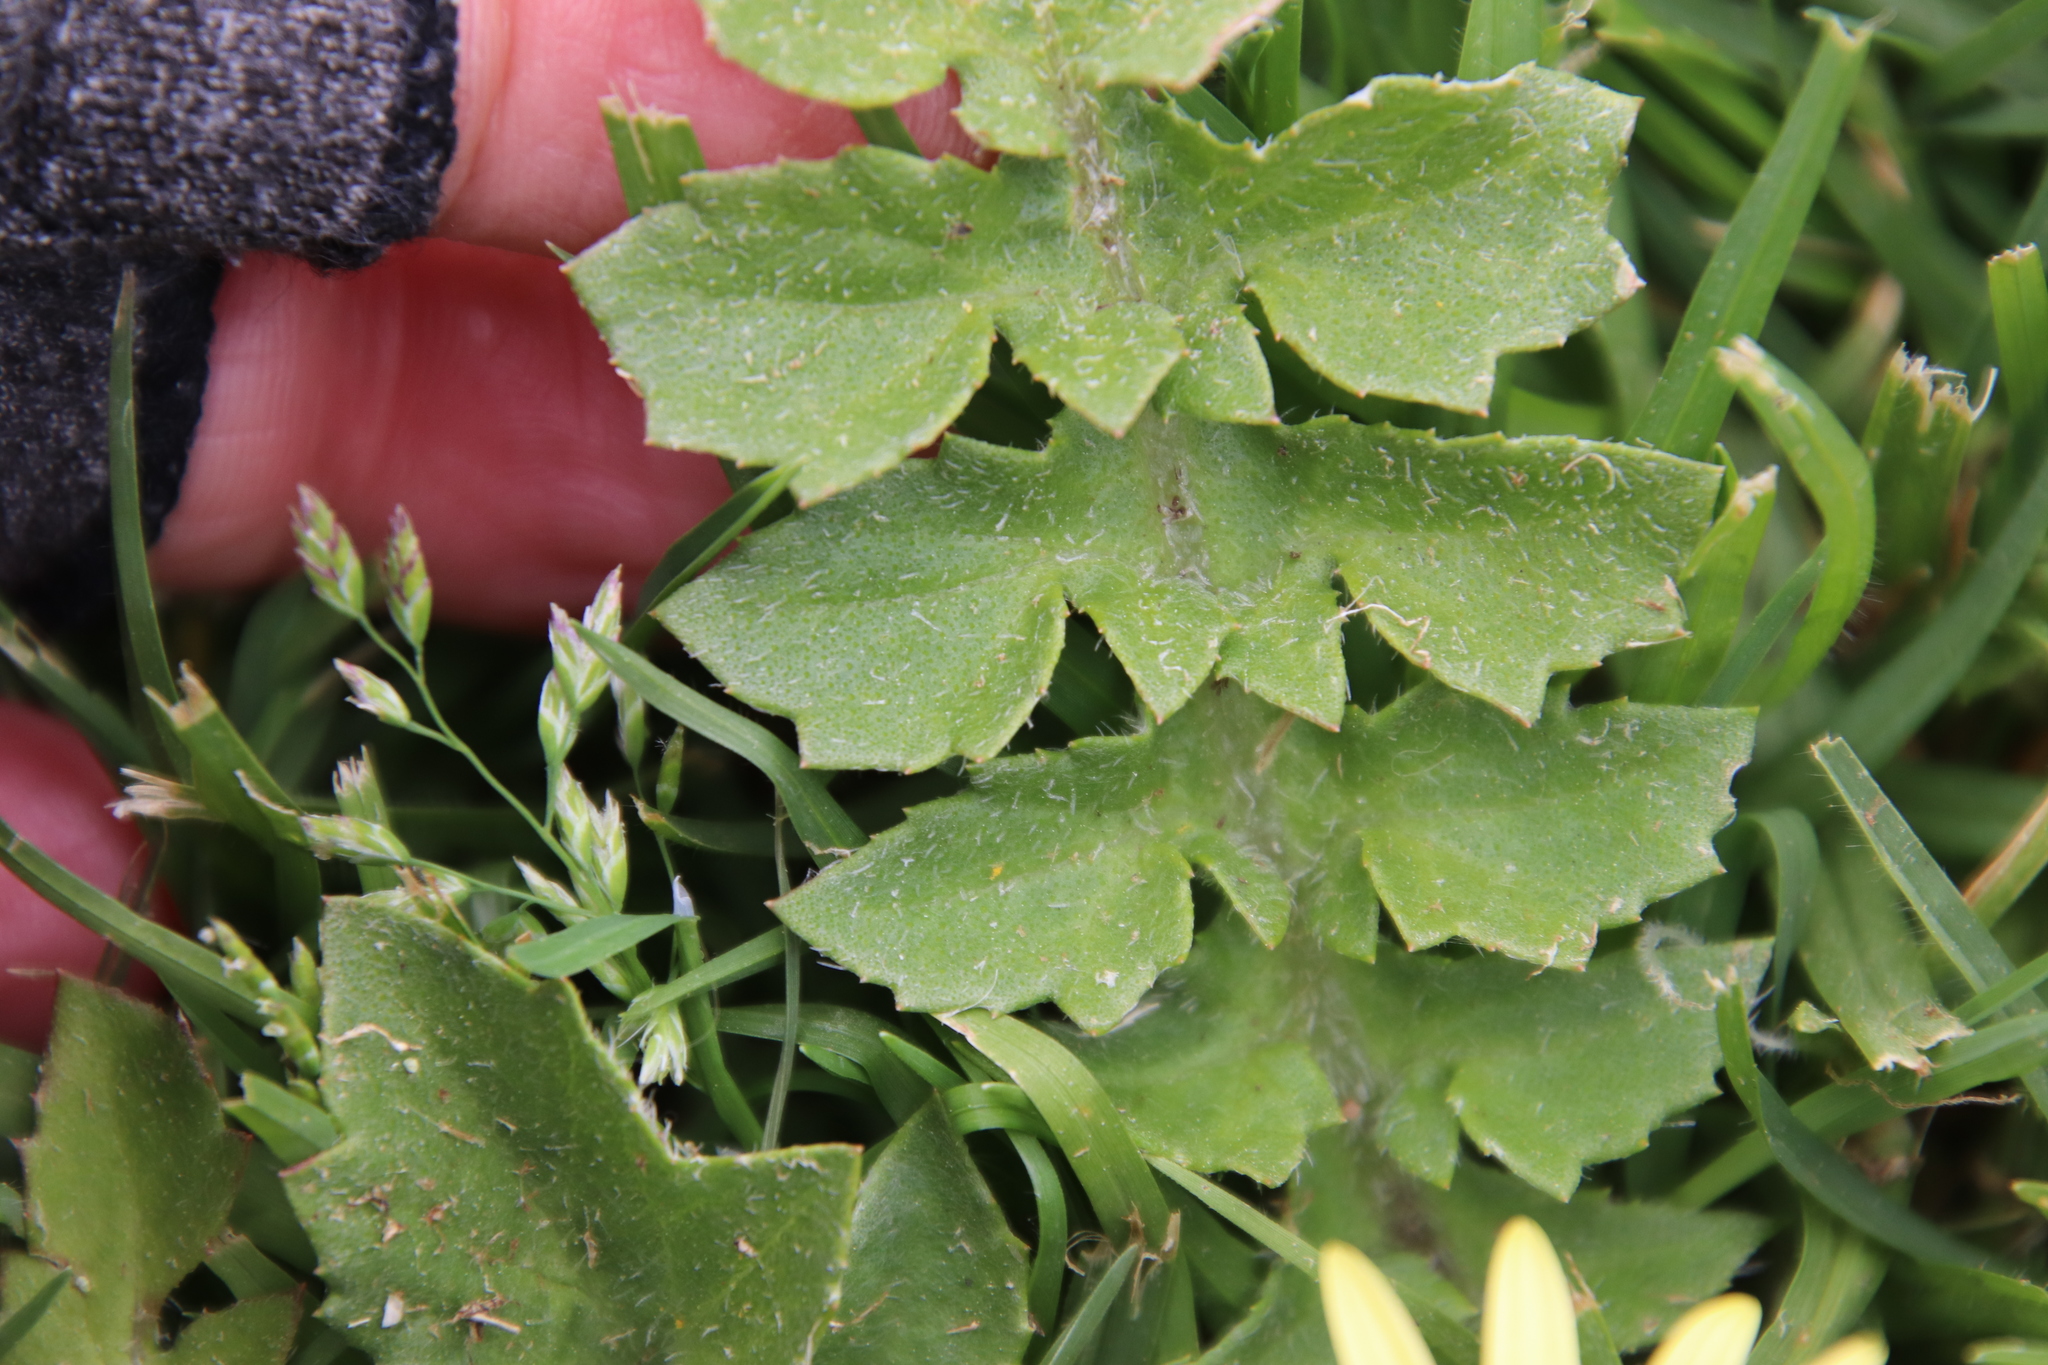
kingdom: Plantae
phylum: Tracheophyta
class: Magnoliopsida
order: Asterales
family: Asteraceae
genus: Arctotheca
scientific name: Arctotheca calendula
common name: Capeweed
